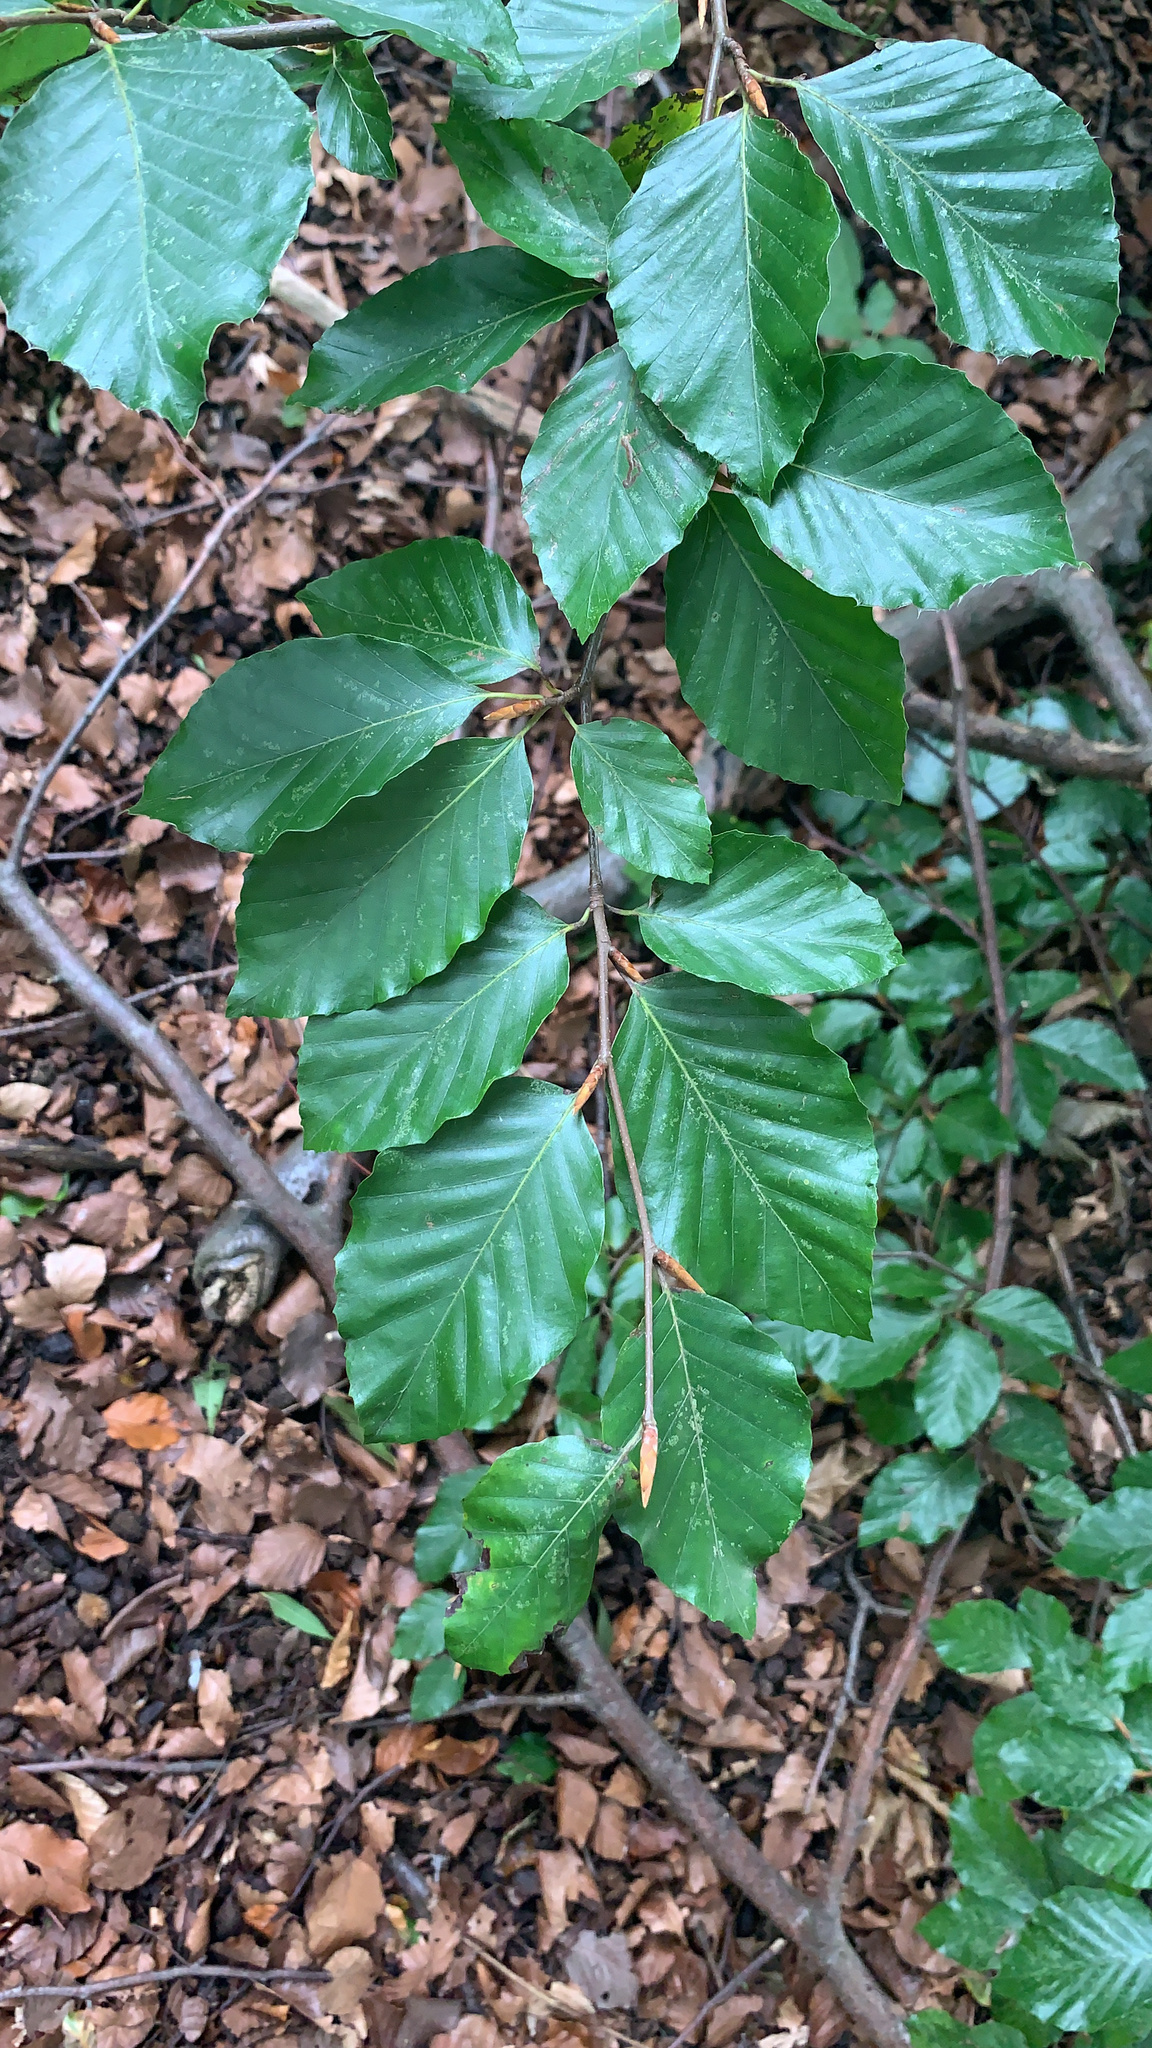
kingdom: Plantae
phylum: Tracheophyta
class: Magnoliopsida
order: Fagales
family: Fagaceae
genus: Fagus
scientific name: Fagus sylvatica
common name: Beech
